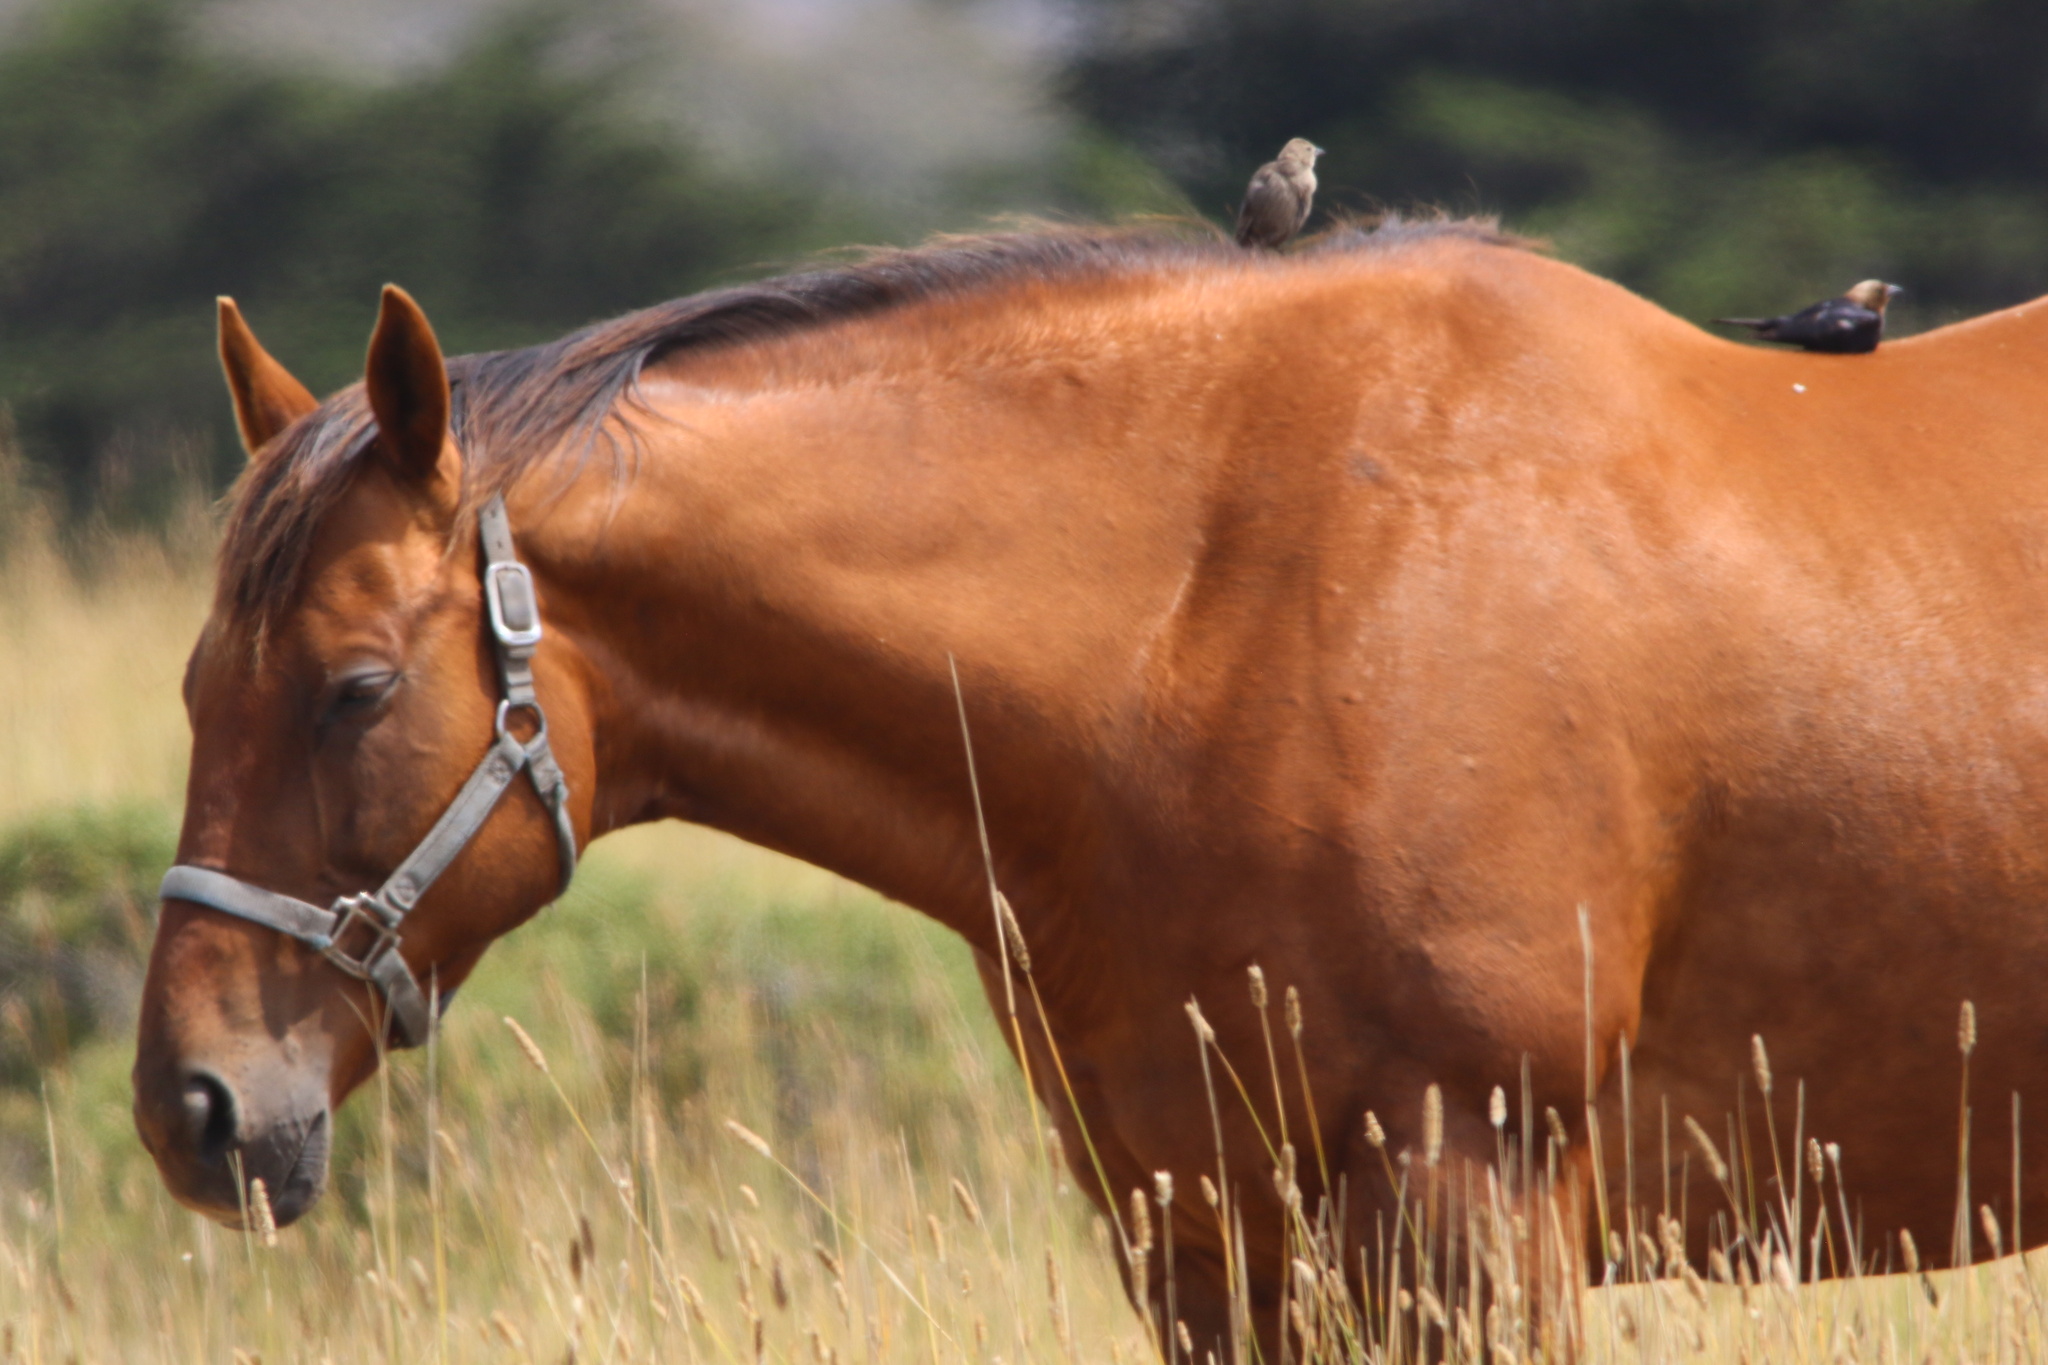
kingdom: Animalia
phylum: Chordata
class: Aves
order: Passeriformes
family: Icteridae
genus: Molothrus
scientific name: Molothrus ater
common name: Brown-headed cowbird
